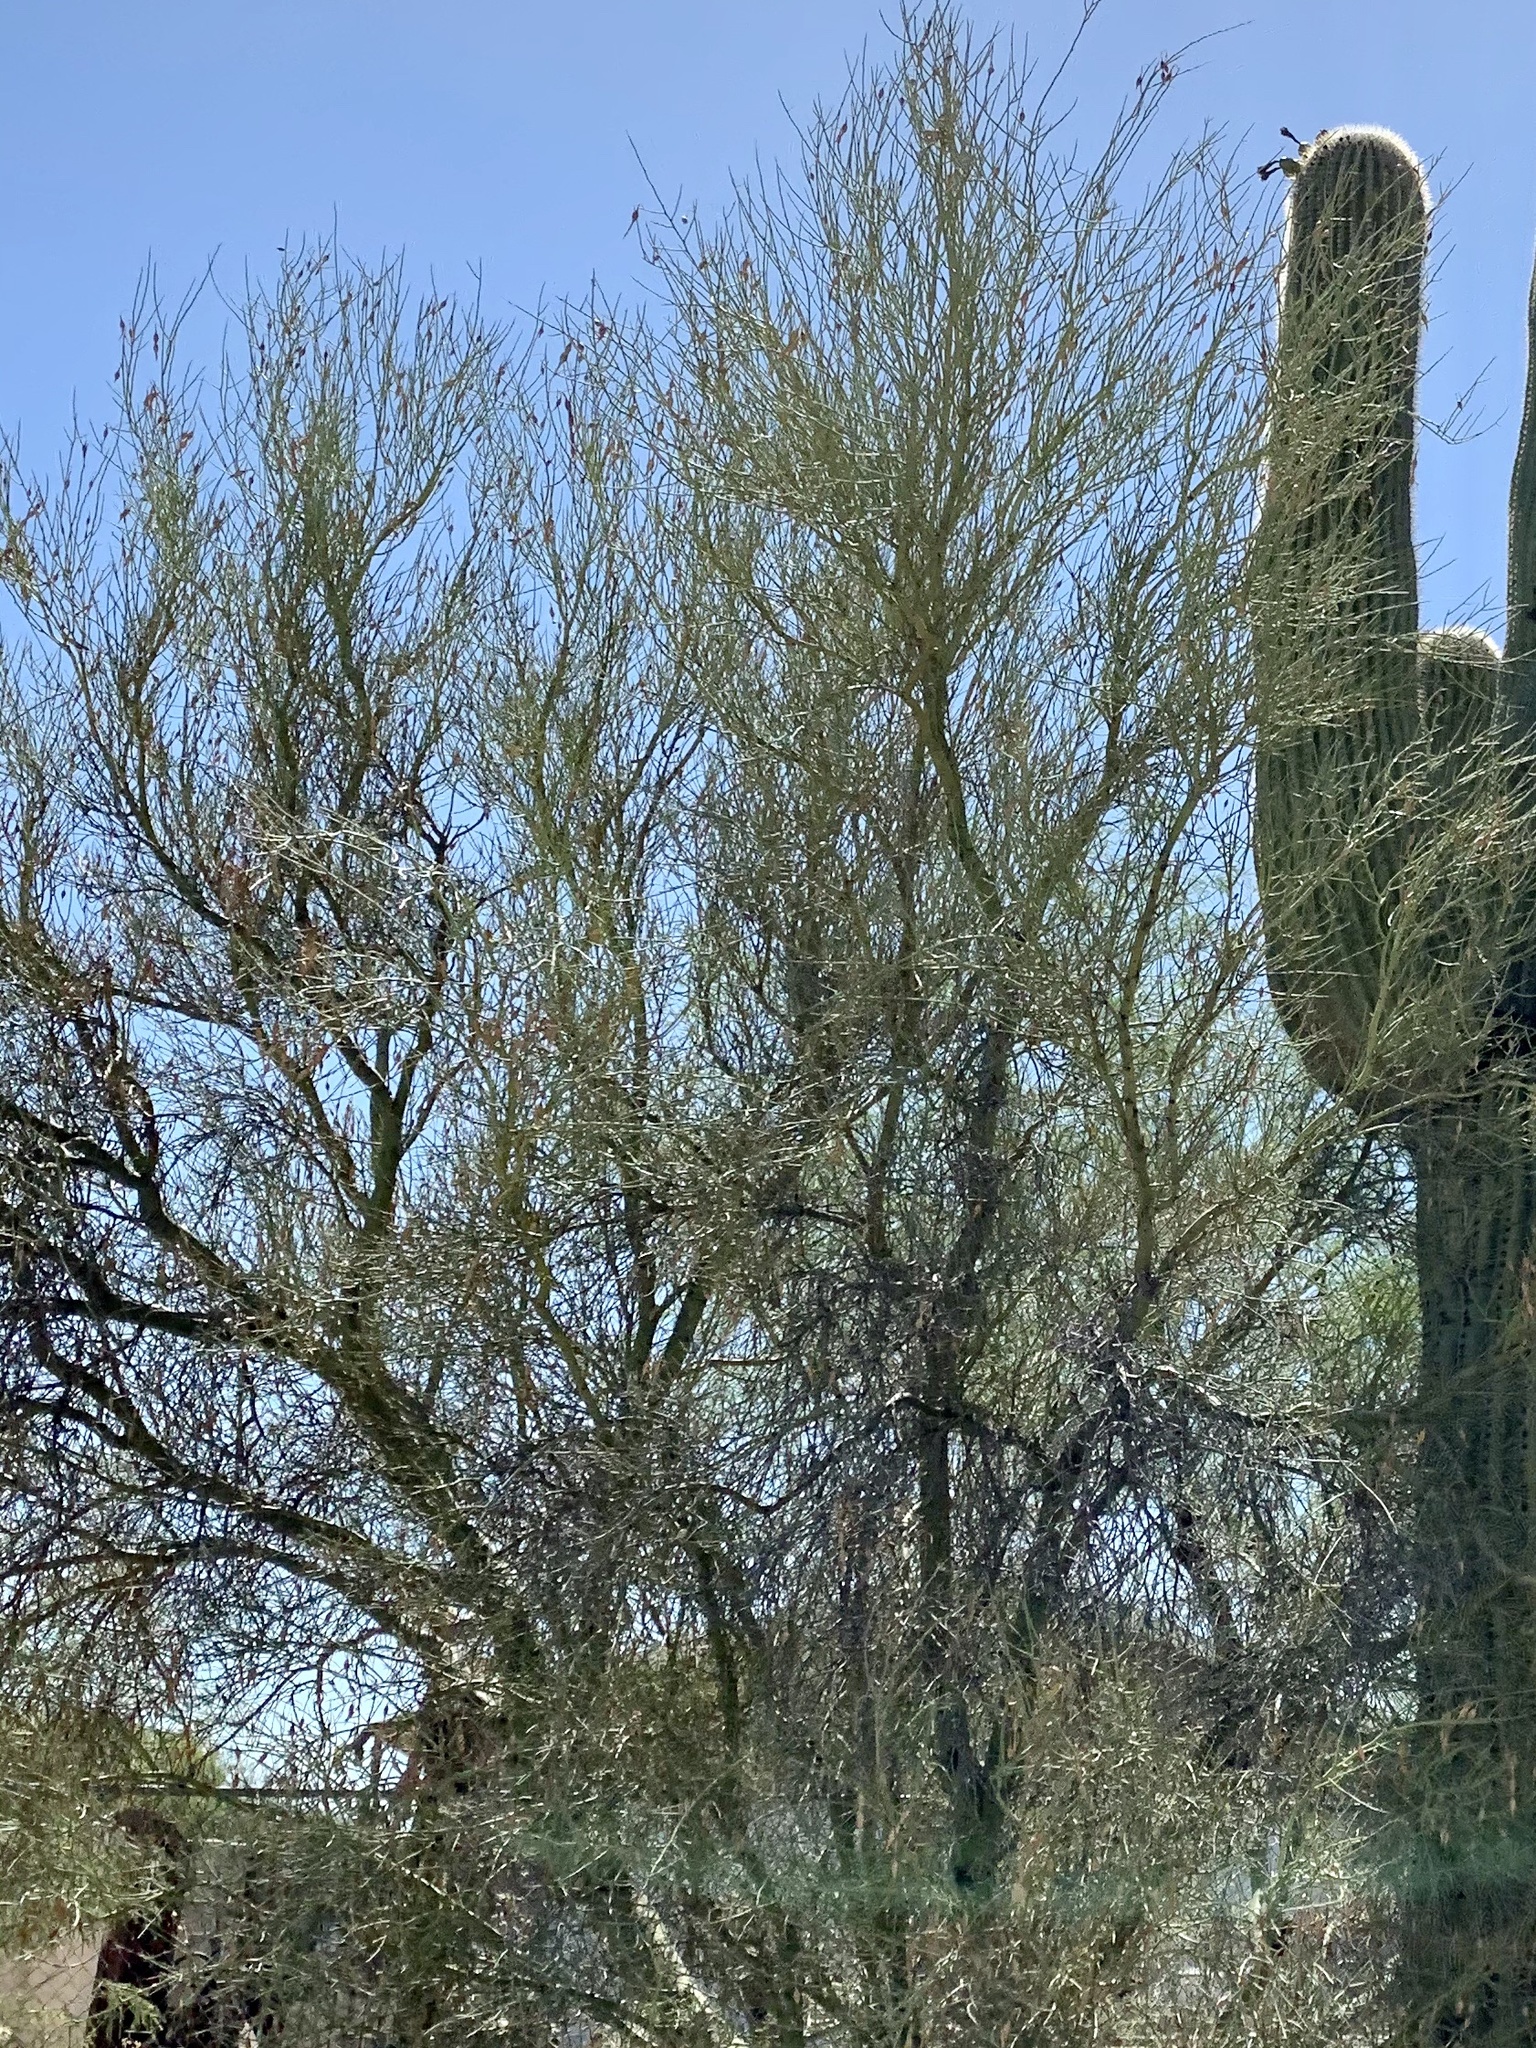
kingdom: Plantae
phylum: Tracheophyta
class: Magnoliopsida
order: Fabales
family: Fabaceae
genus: Parkinsonia
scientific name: Parkinsonia microphylla
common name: Yellow paloverde
